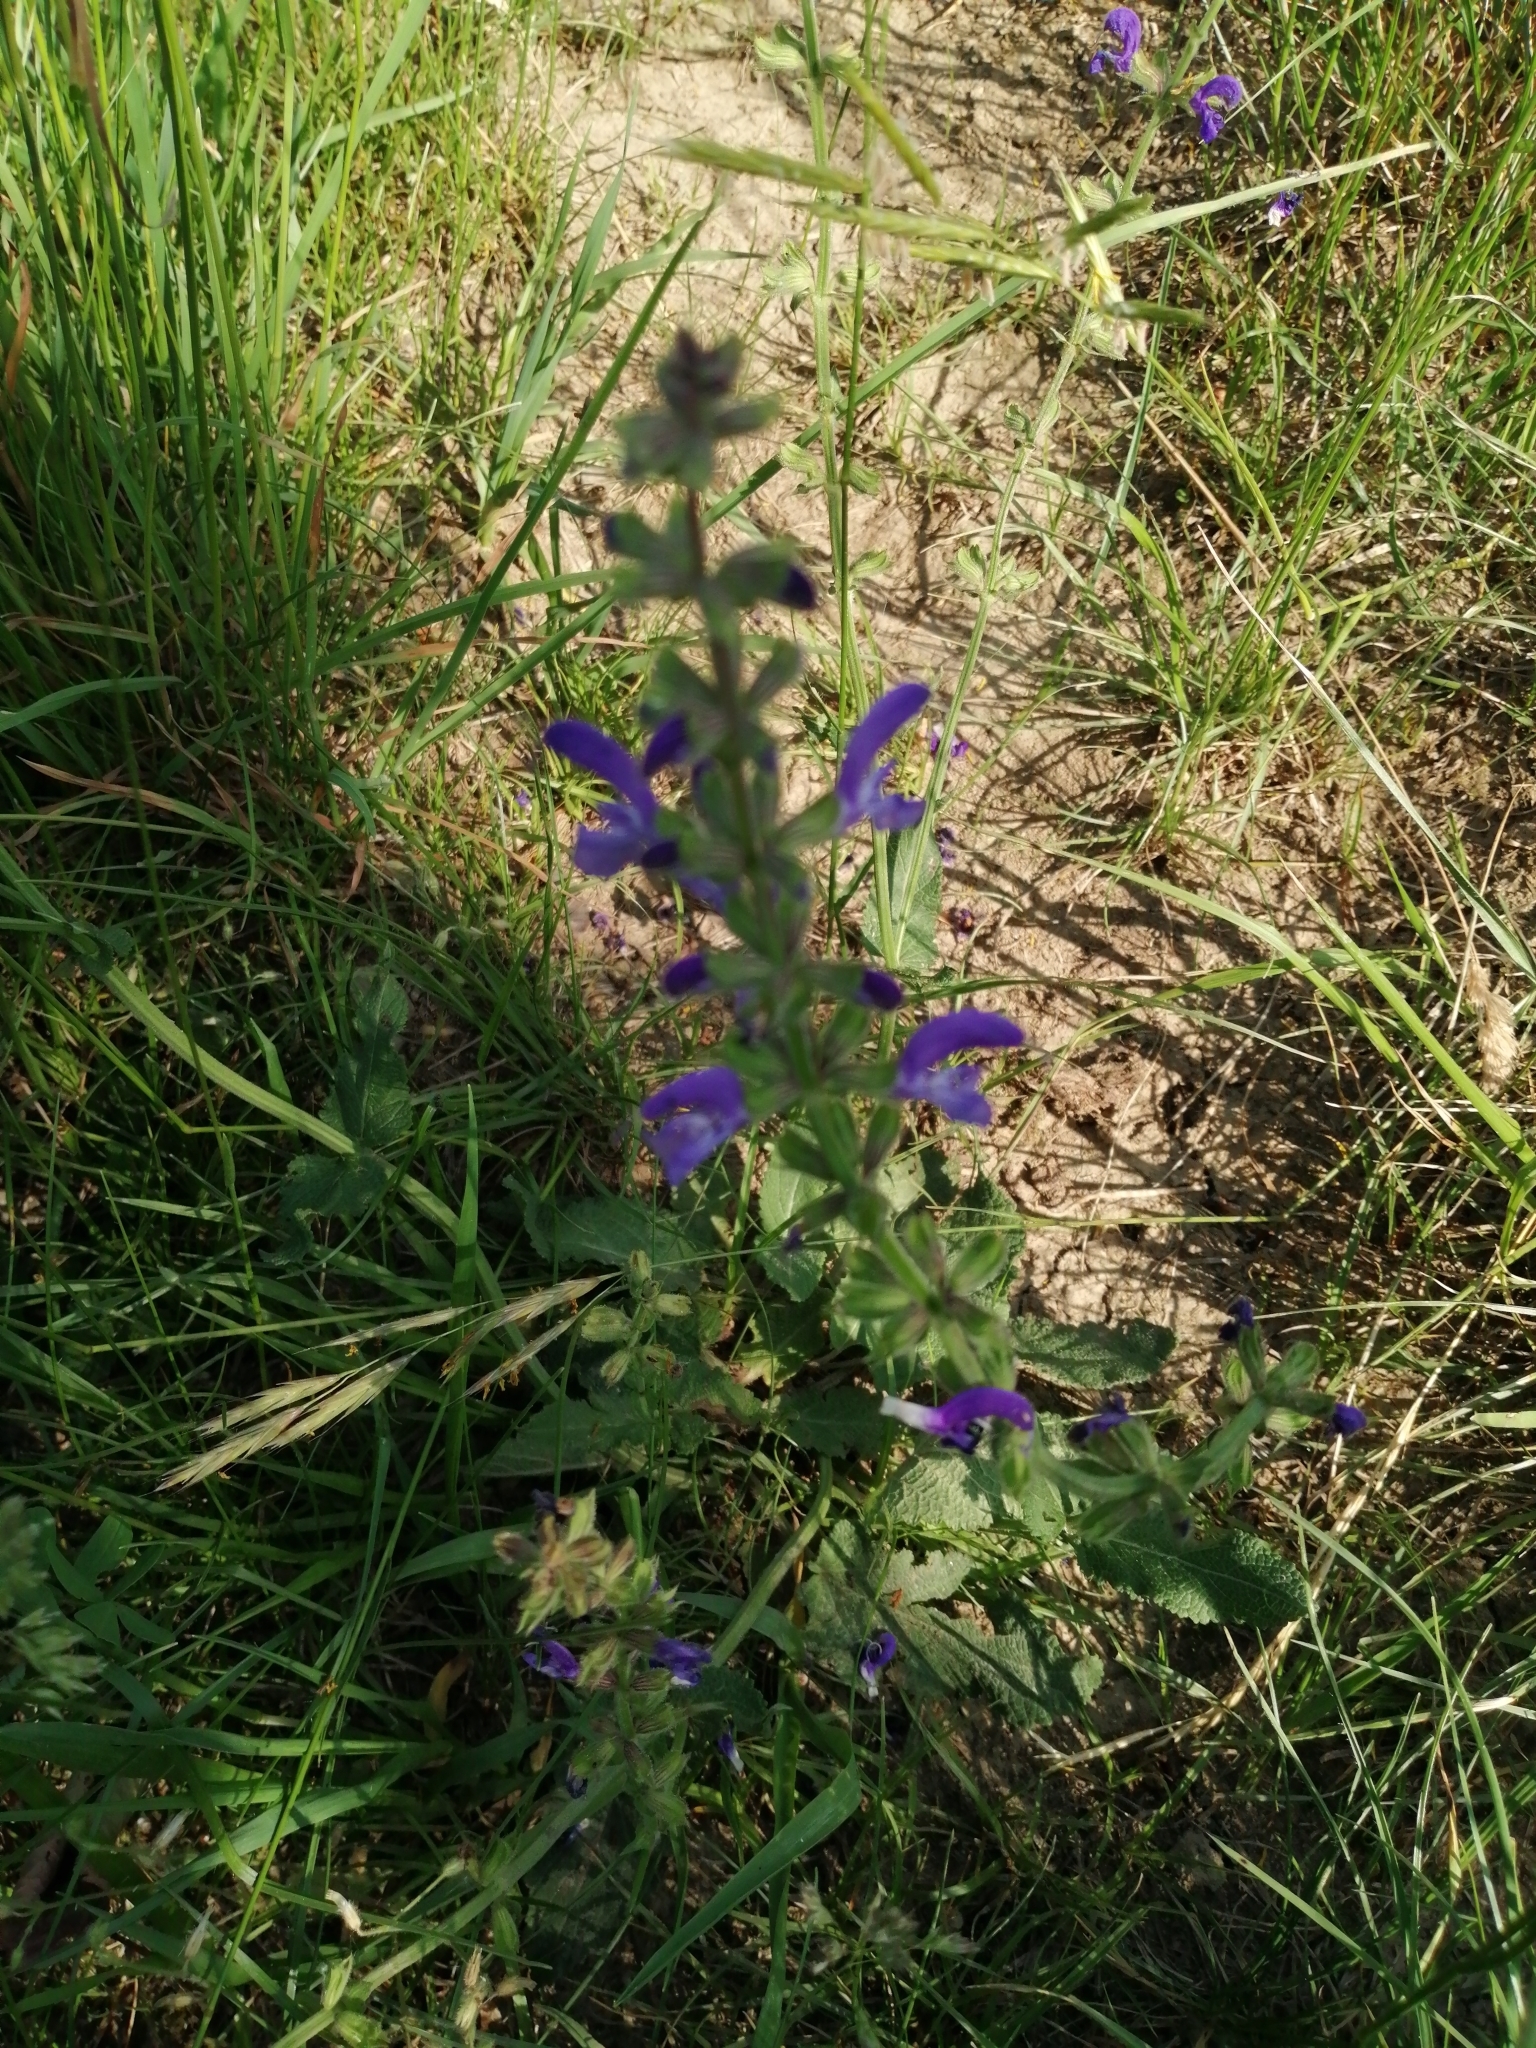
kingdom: Plantae
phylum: Tracheophyta
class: Magnoliopsida
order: Lamiales
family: Lamiaceae
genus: Salvia
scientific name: Salvia pratensis
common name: Meadow sage
